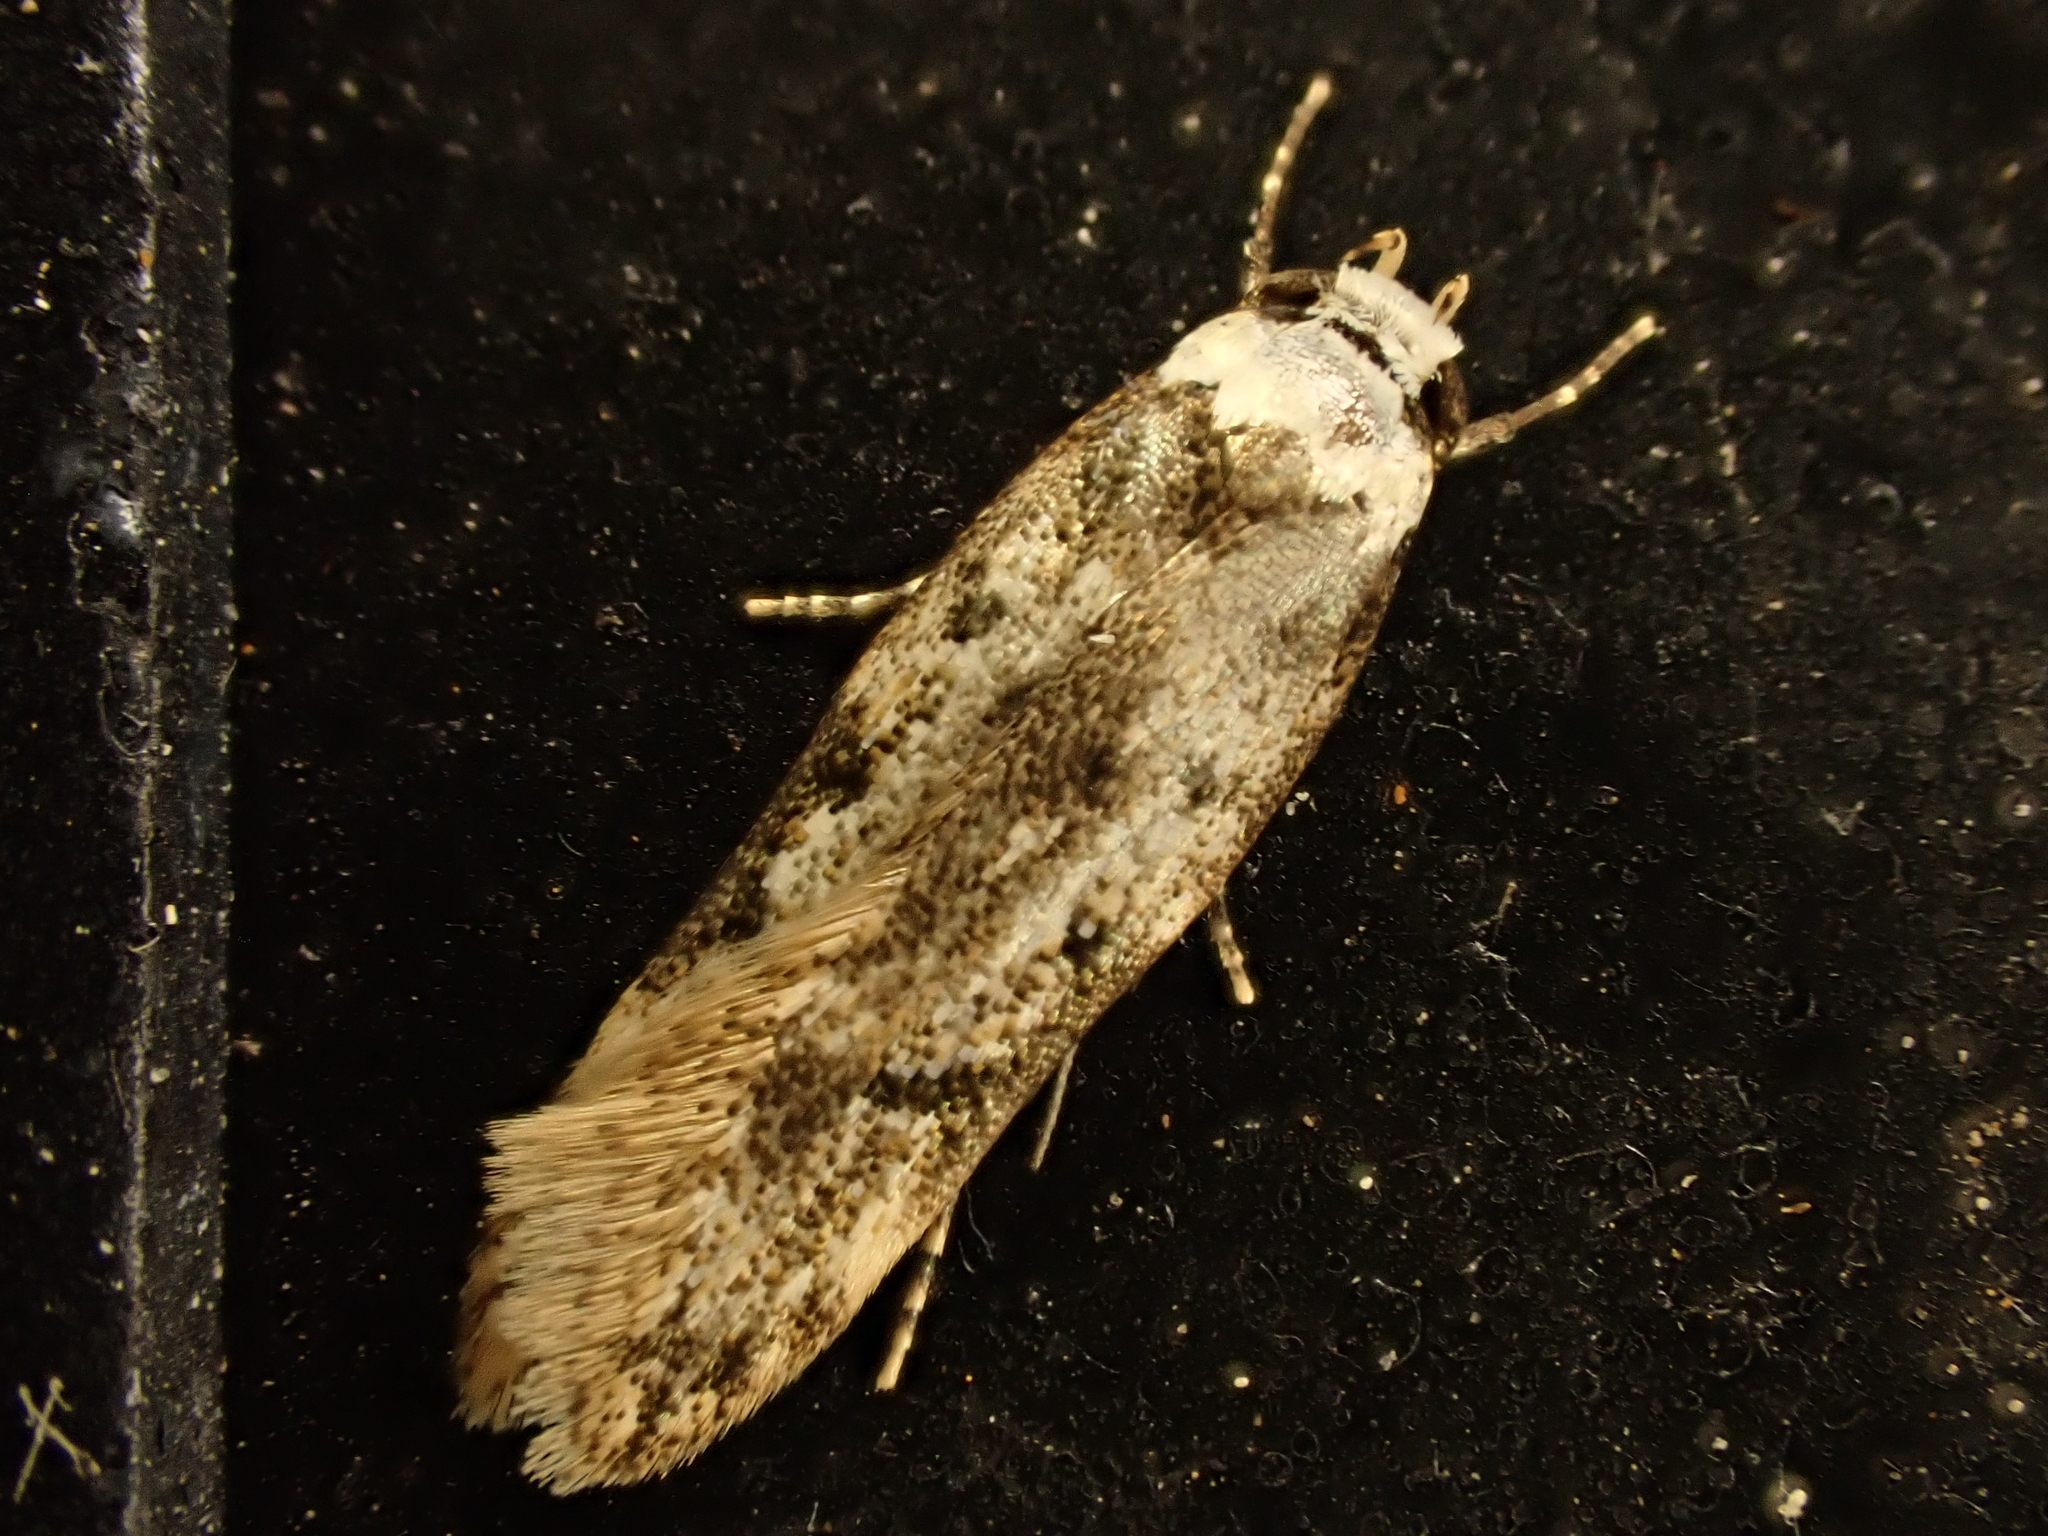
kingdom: Animalia
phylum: Arthropoda
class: Insecta
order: Lepidoptera
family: Oecophoridae
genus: Endrosis
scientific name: Endrosis sarcitrella
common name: White-shouldered house moth
